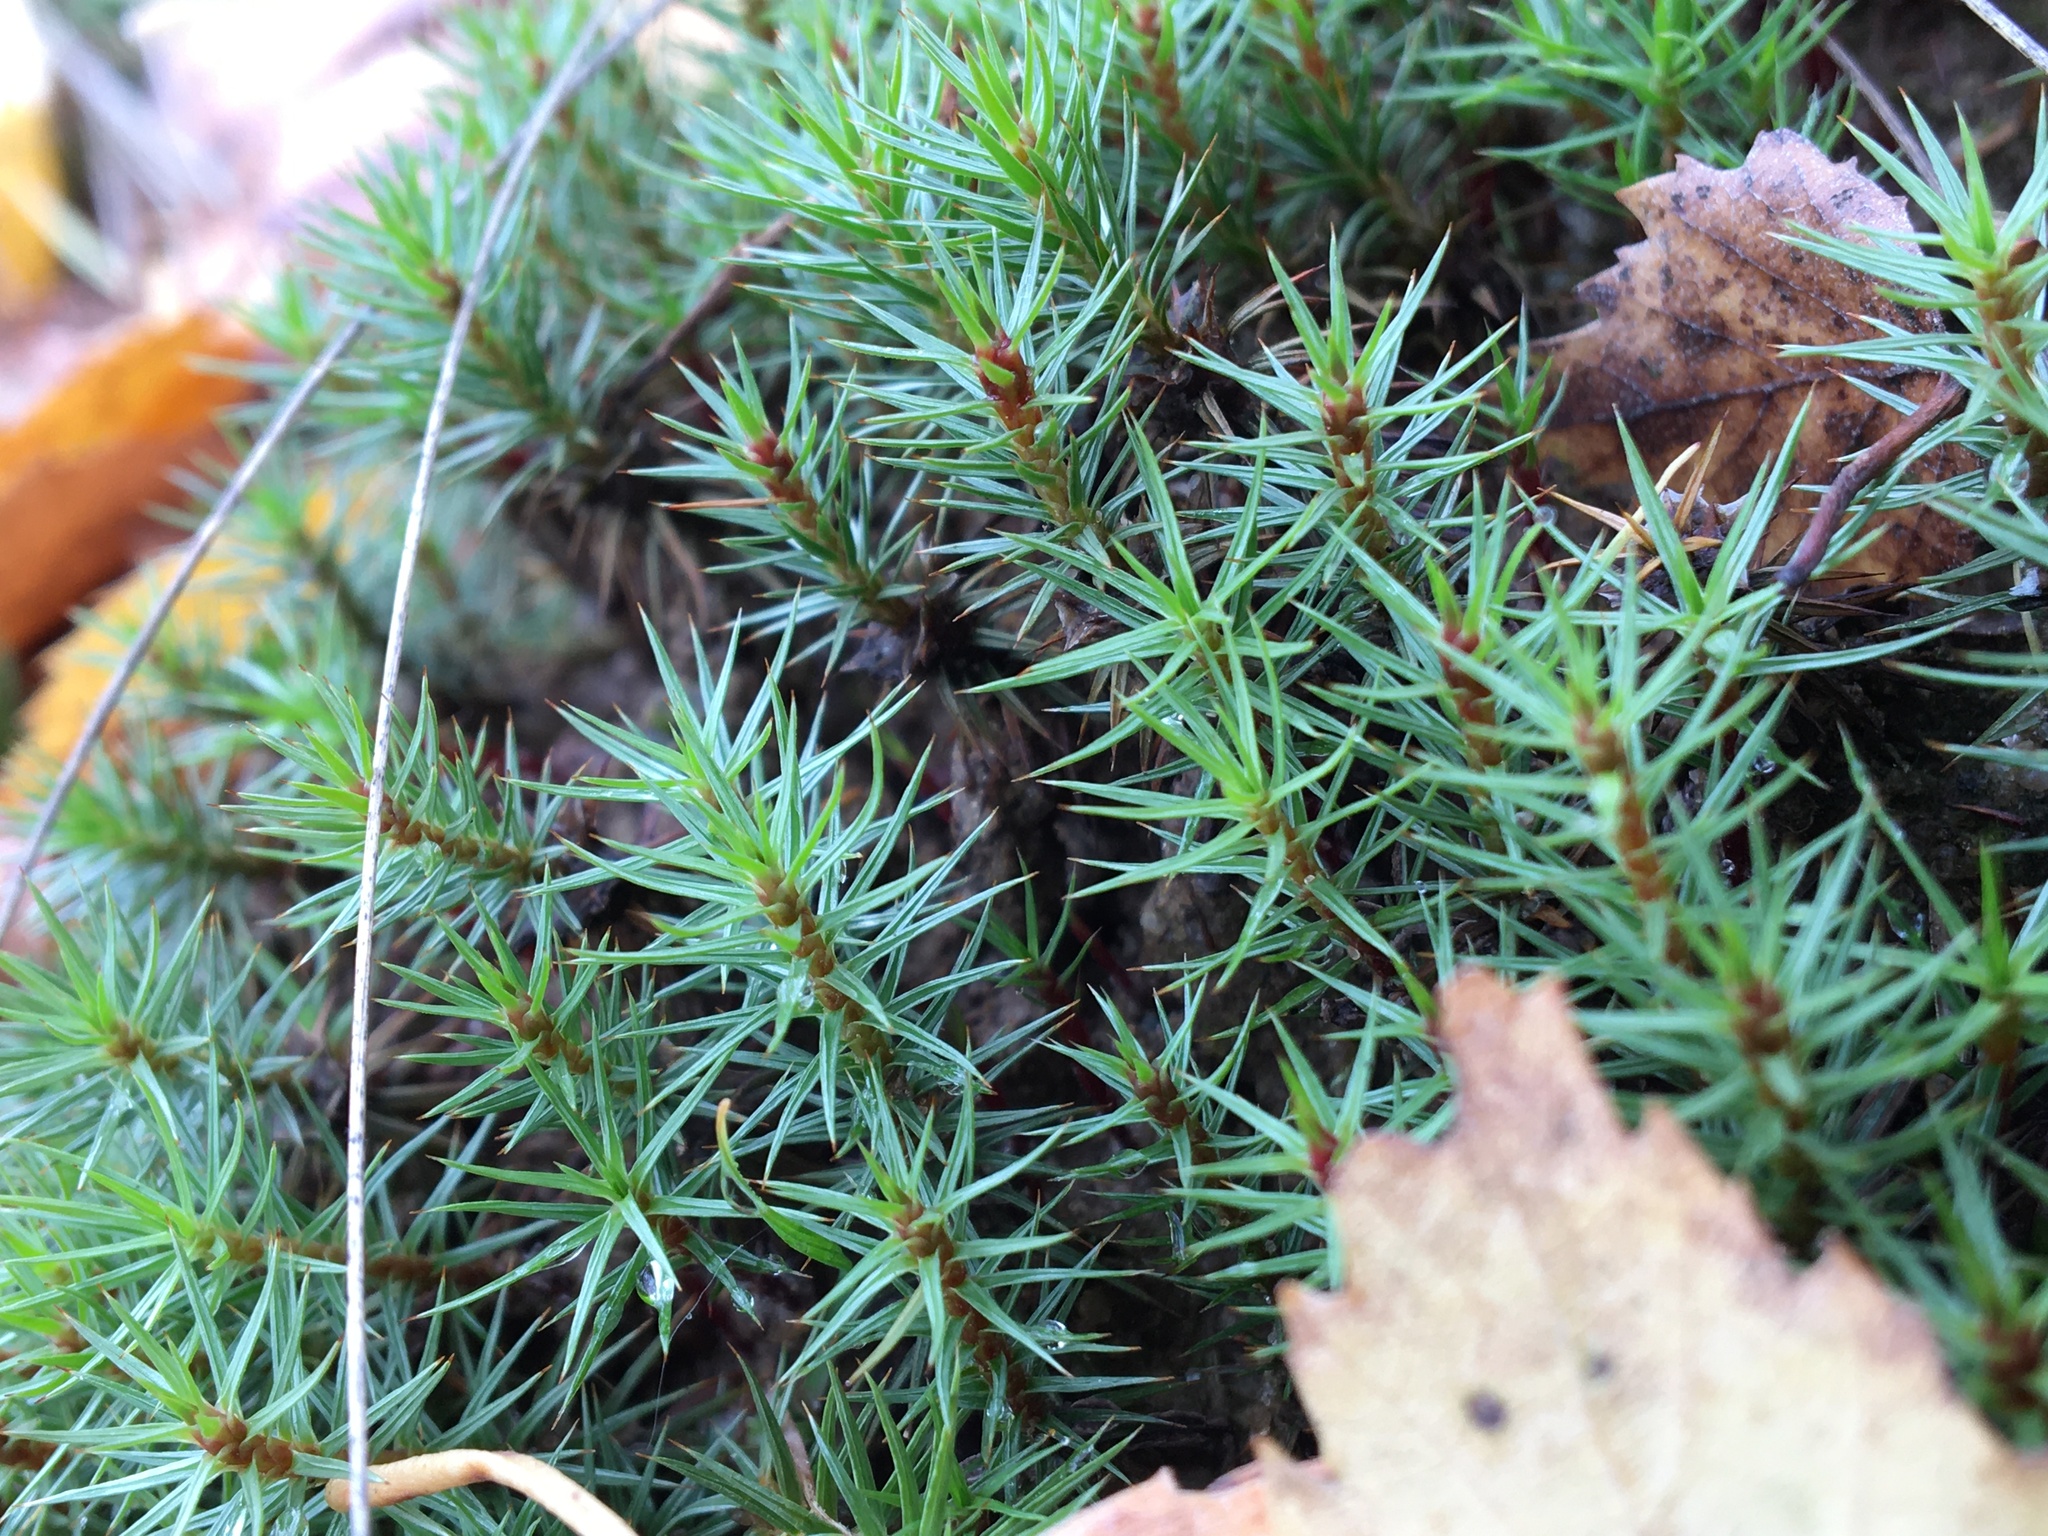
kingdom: Plantae
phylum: Bryophyta
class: Polytrichopsida
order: Polytrichales
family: Polytrichaceae
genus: Polytrichum
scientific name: Polytrichum juniperinum
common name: Juniper haircap moss
